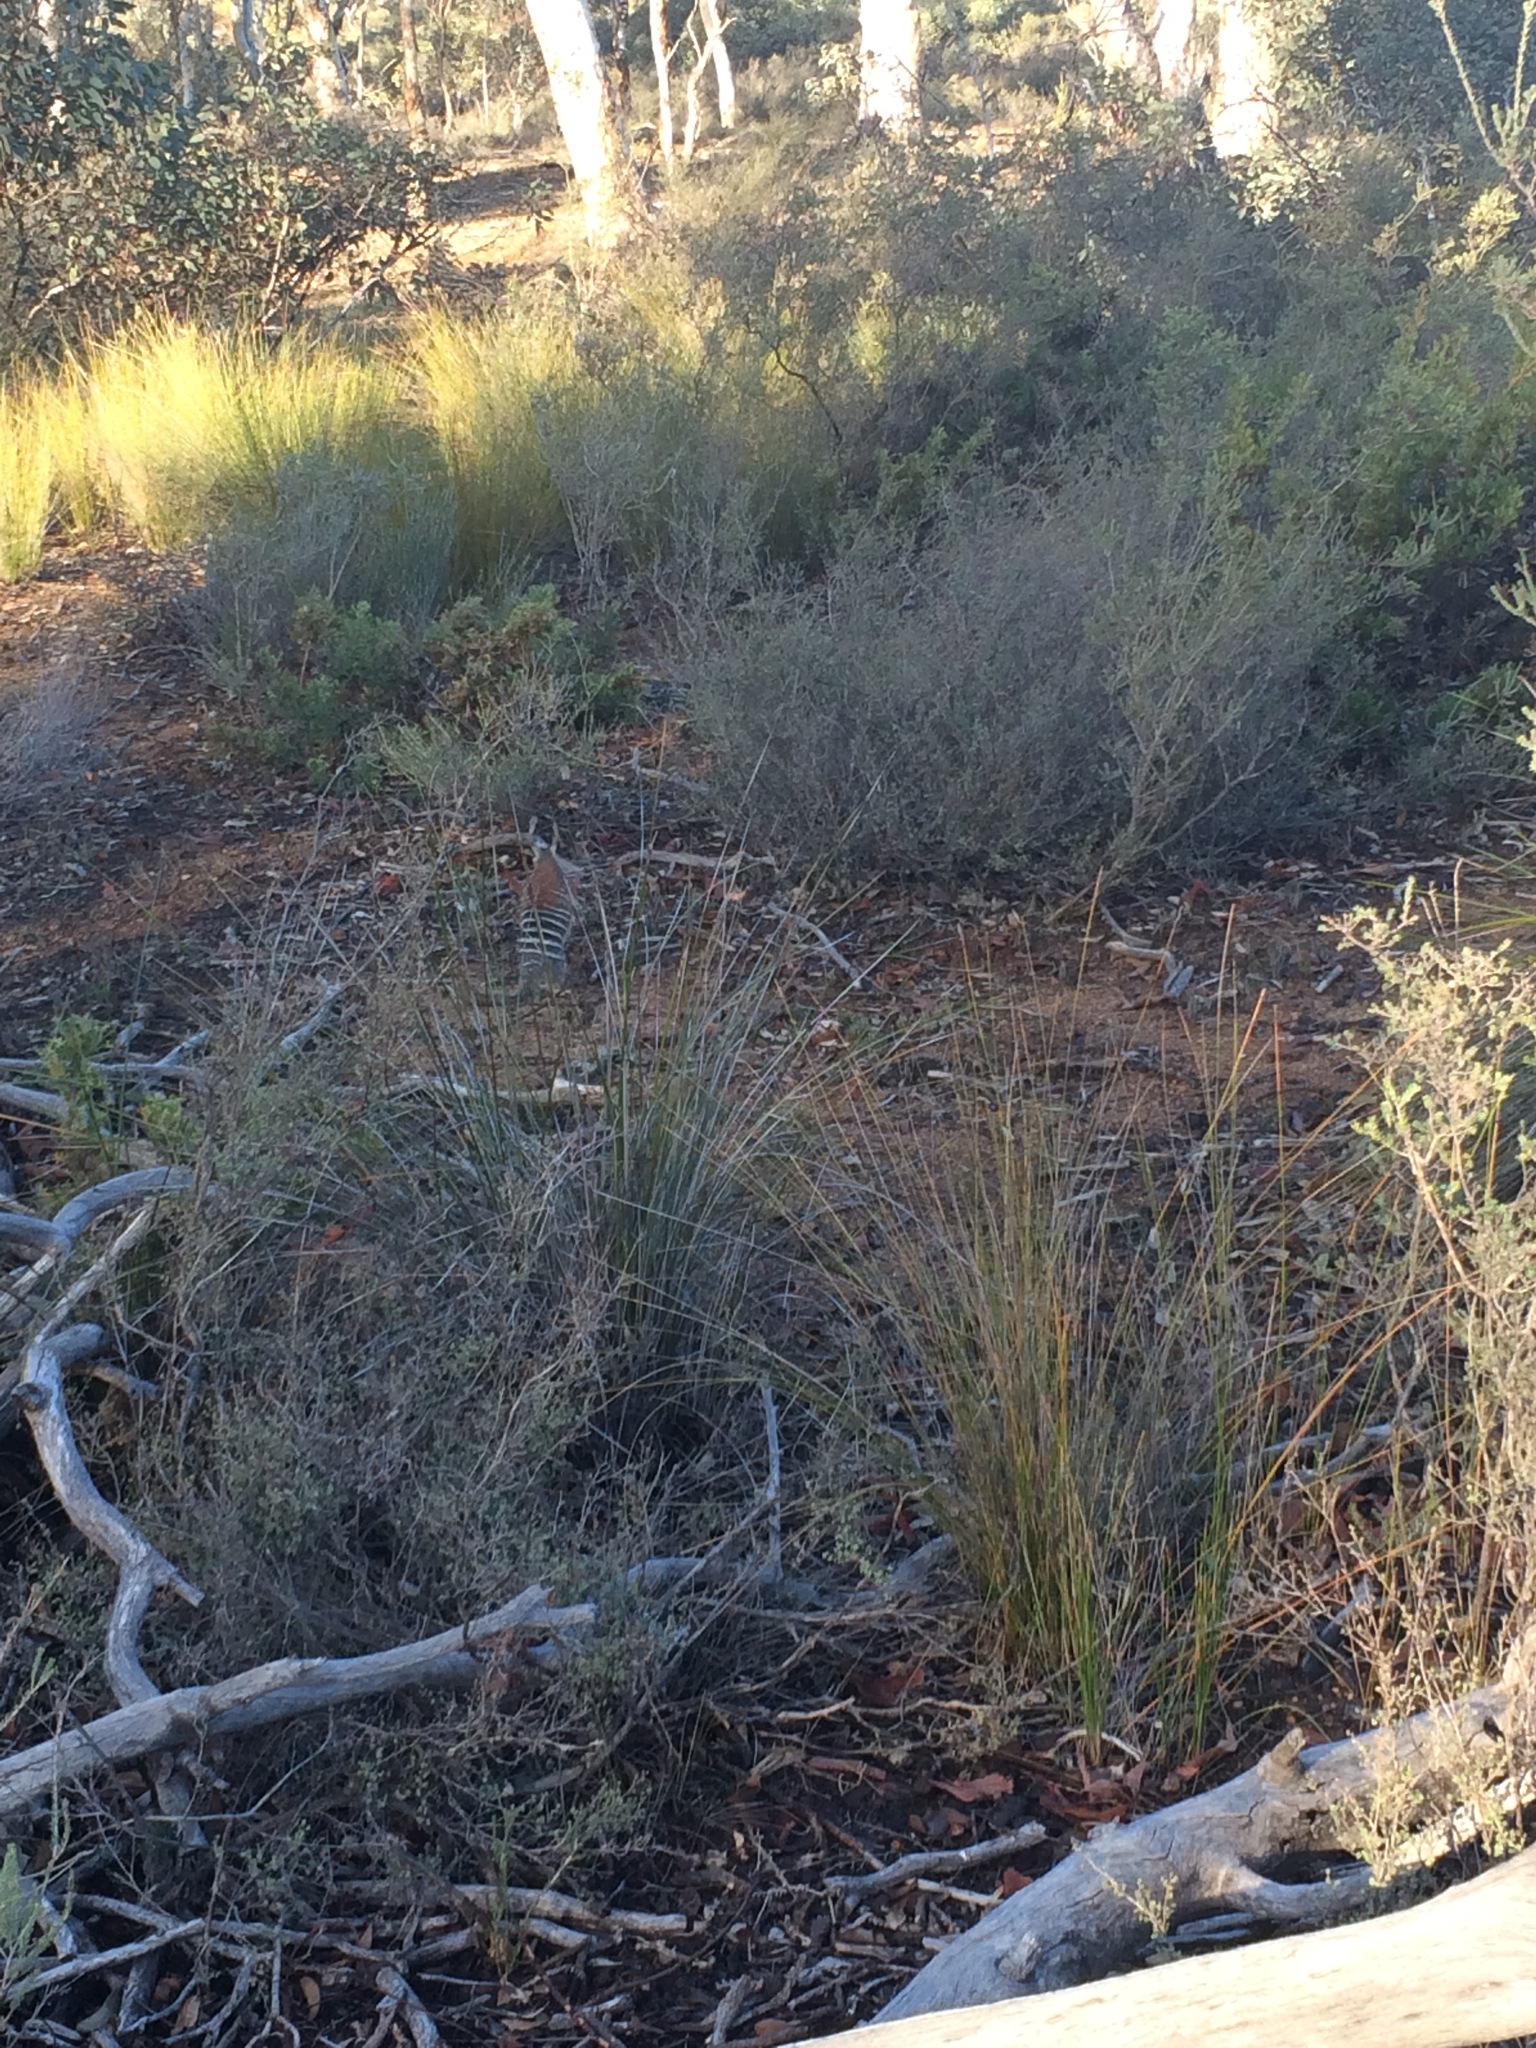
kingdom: Animalia
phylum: Chordata
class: Mammalia
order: Dasyuromorphia
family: Myrmecobiidae
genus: Myrmecobius
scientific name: Myrmecobius fasciatus
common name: Numbat
